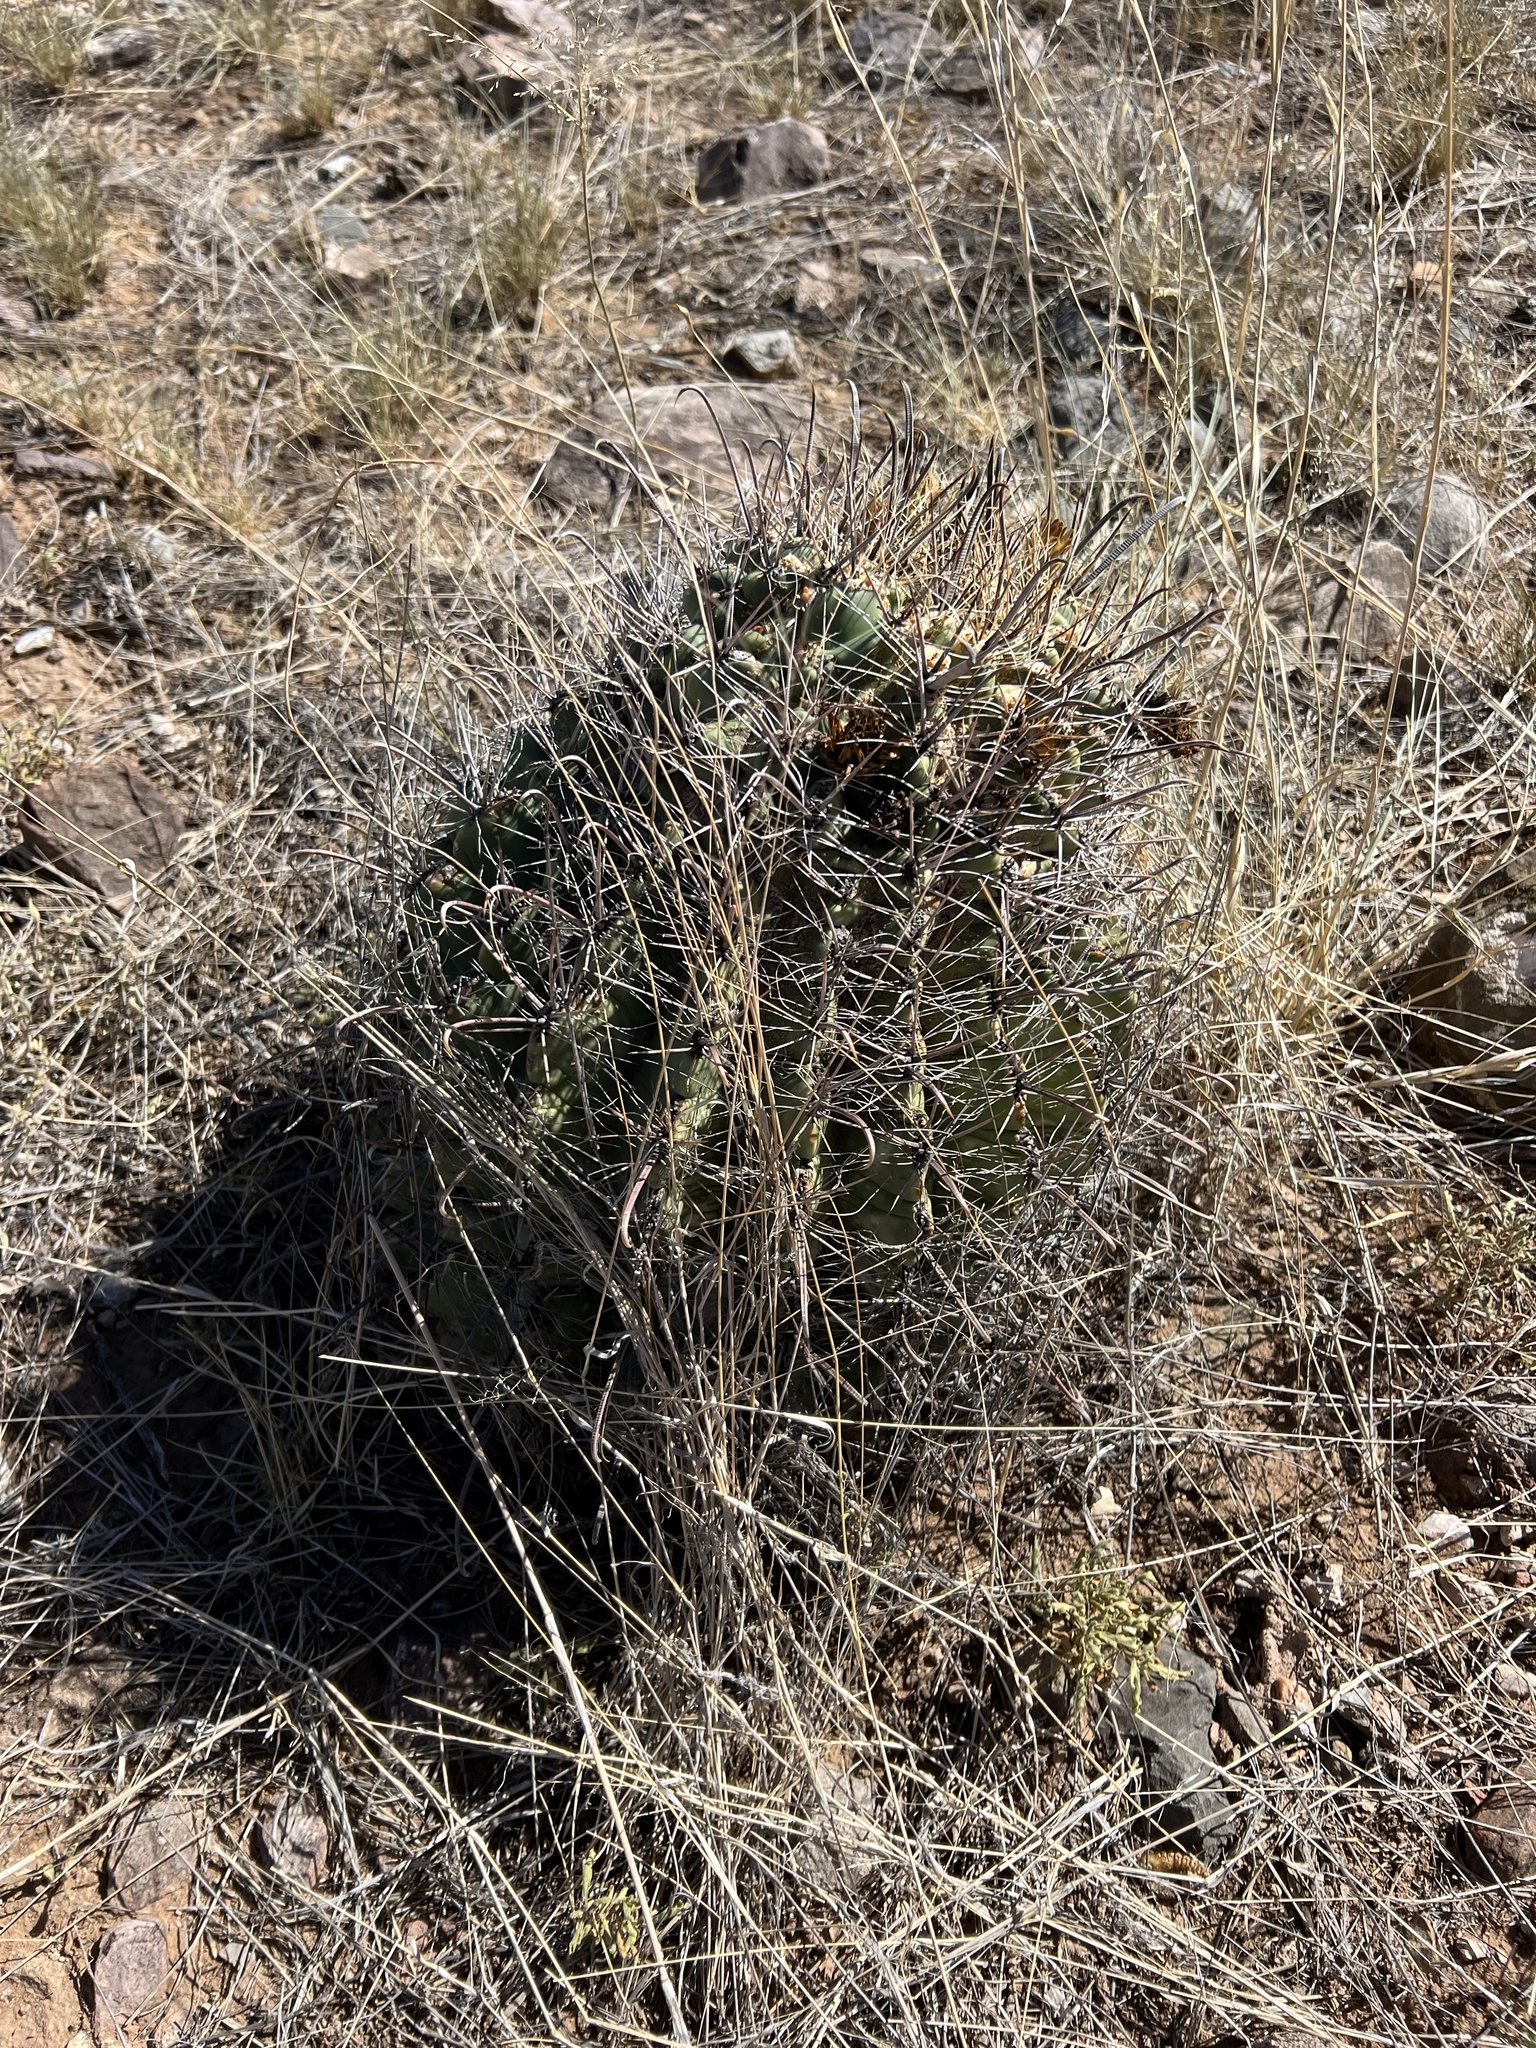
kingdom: Plantae
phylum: Tracheophyta
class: Magnoliopsida
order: Caryophyllales
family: Cactaceae
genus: Ferocactus
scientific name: Ferocactus wislizeni
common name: Candy barrel cactus
